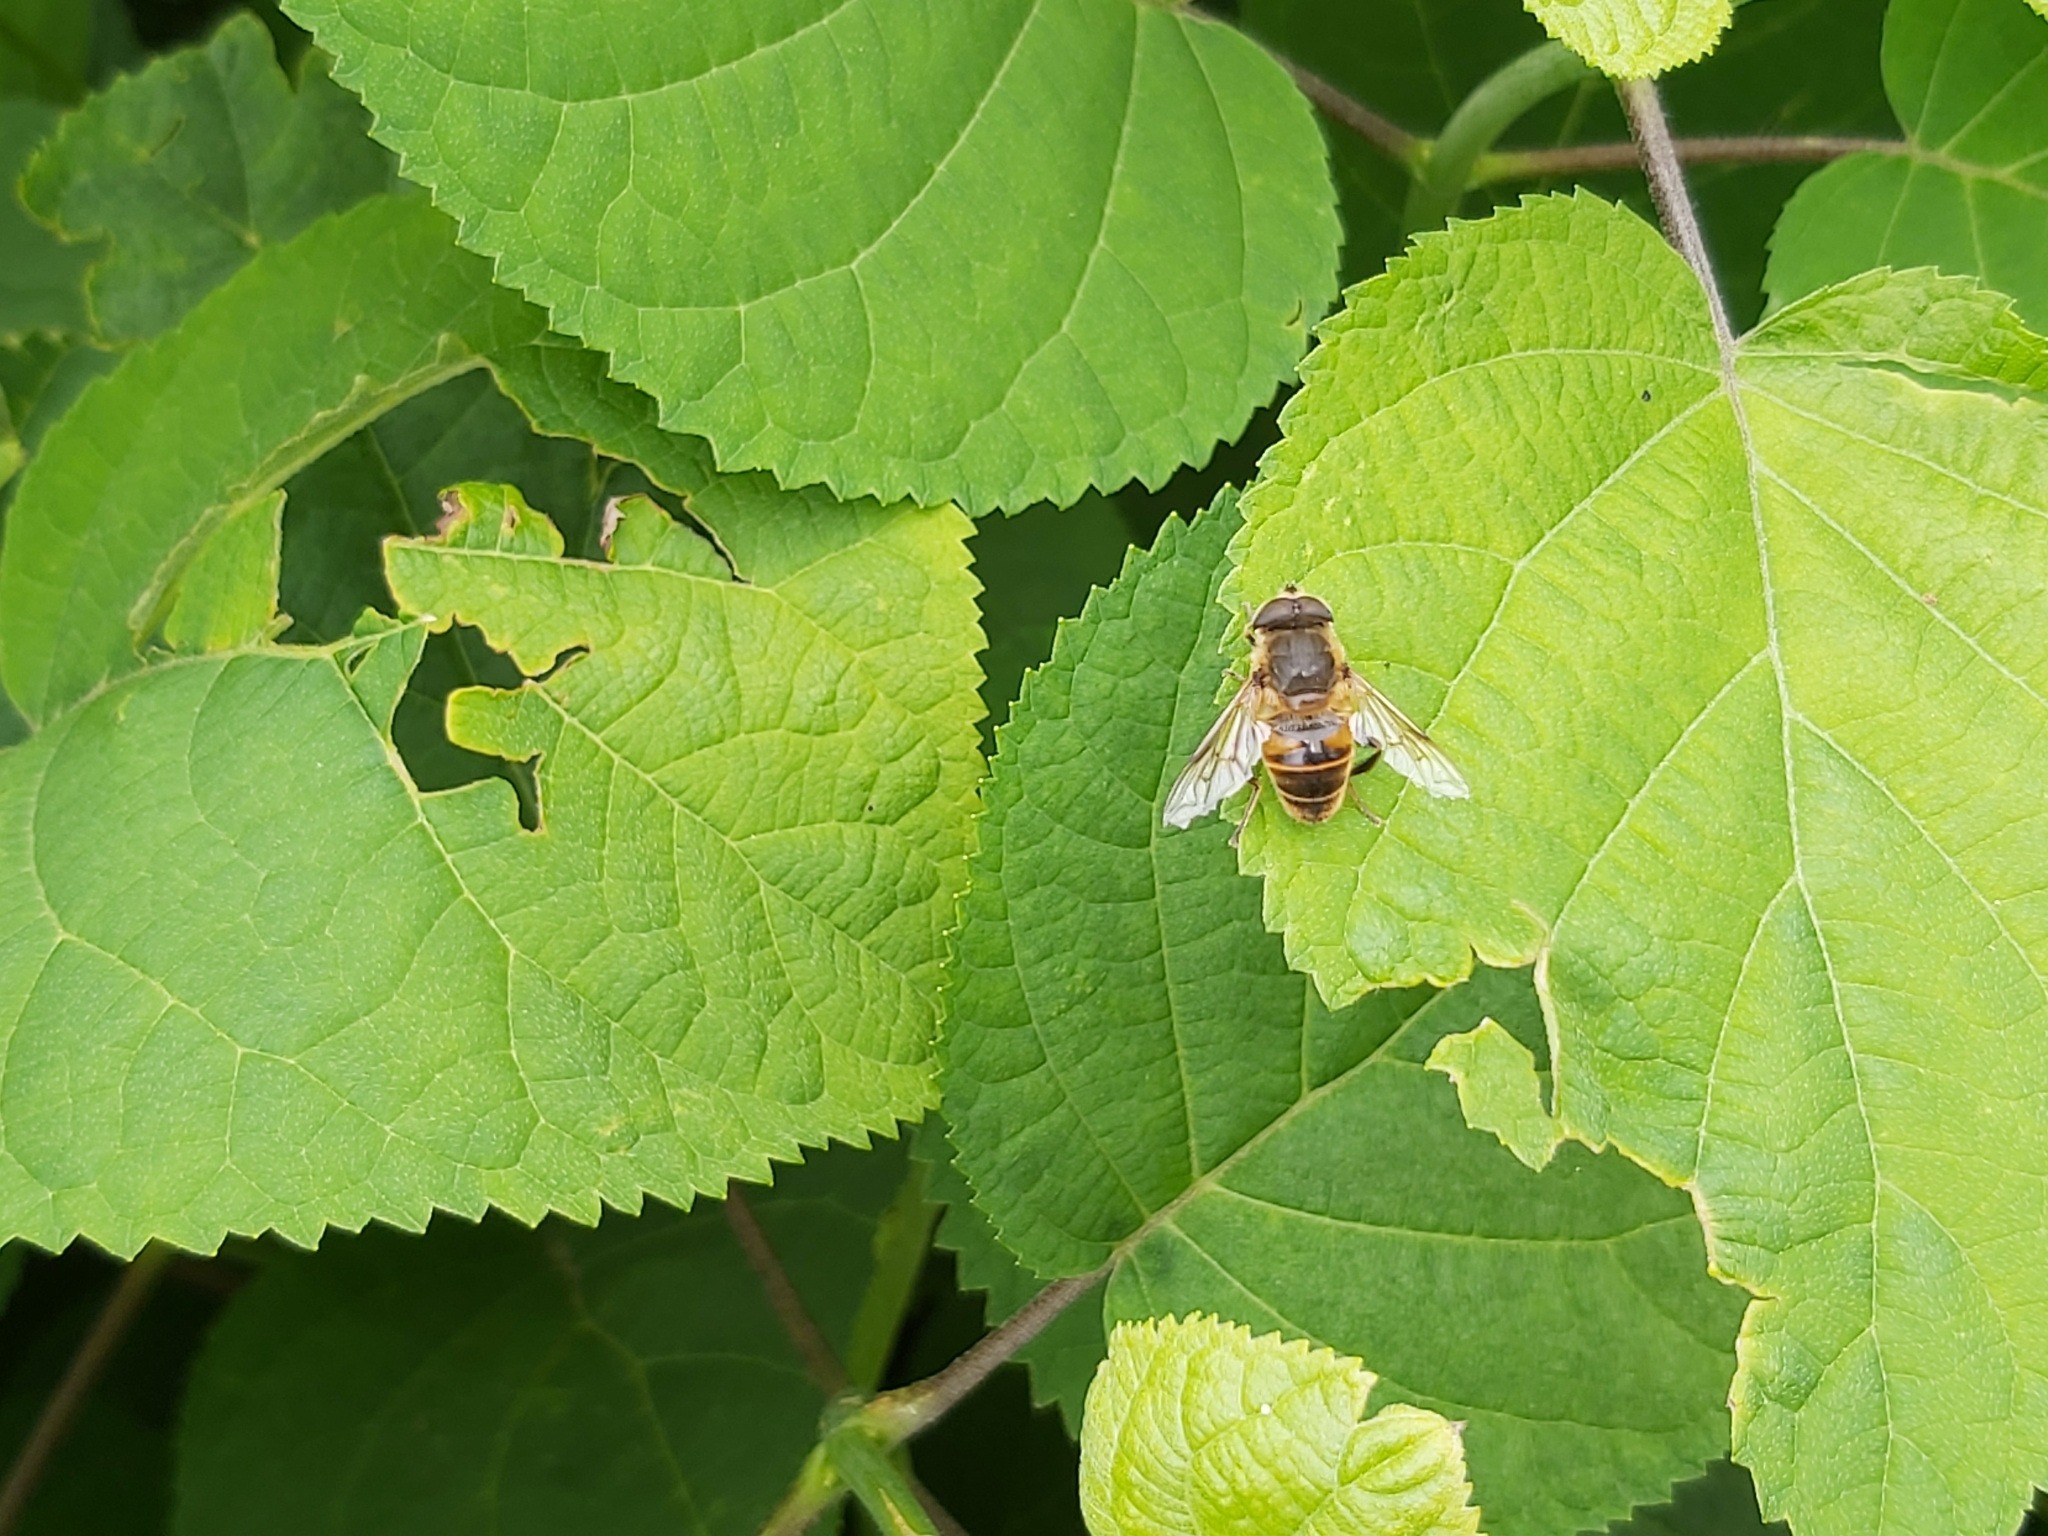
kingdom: Animalia
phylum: Arthropoda
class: Insecta
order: Diptera
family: Syrphidae
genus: Eristalis
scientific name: Eristalis tenax
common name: Drone fly
